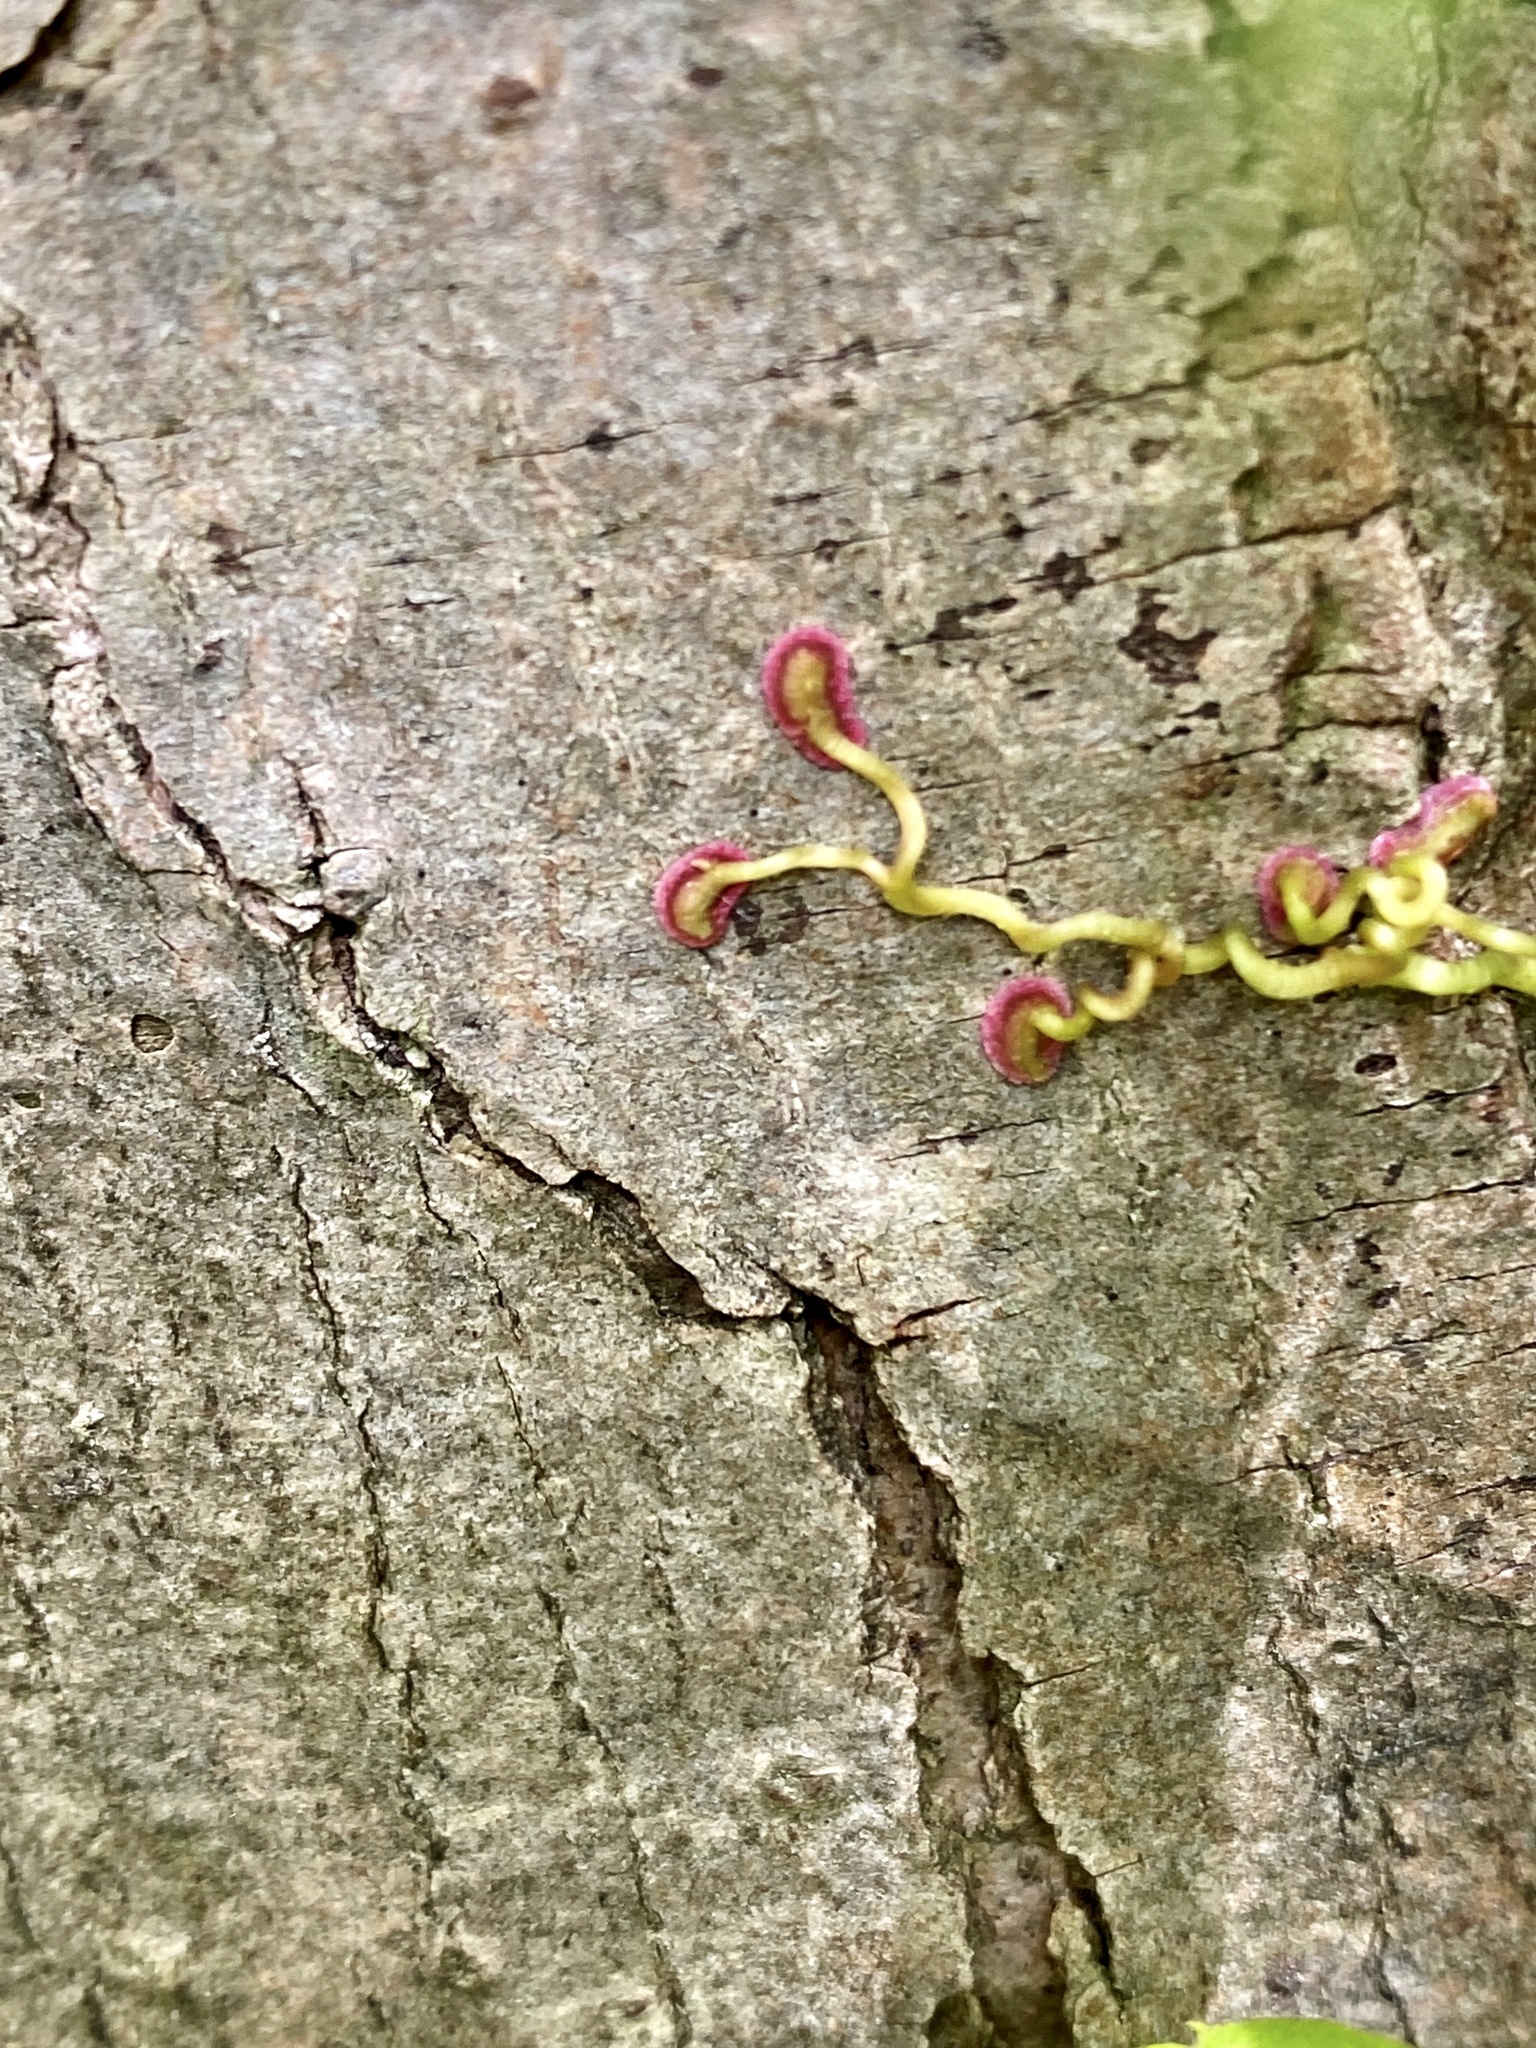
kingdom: Plantae
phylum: Tracheophyta
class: Magnoliopsida
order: Vitales
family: Vitaceae
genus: Parthenocissus
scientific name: Parthenocissus quinquefolia
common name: Virginia-creeper
